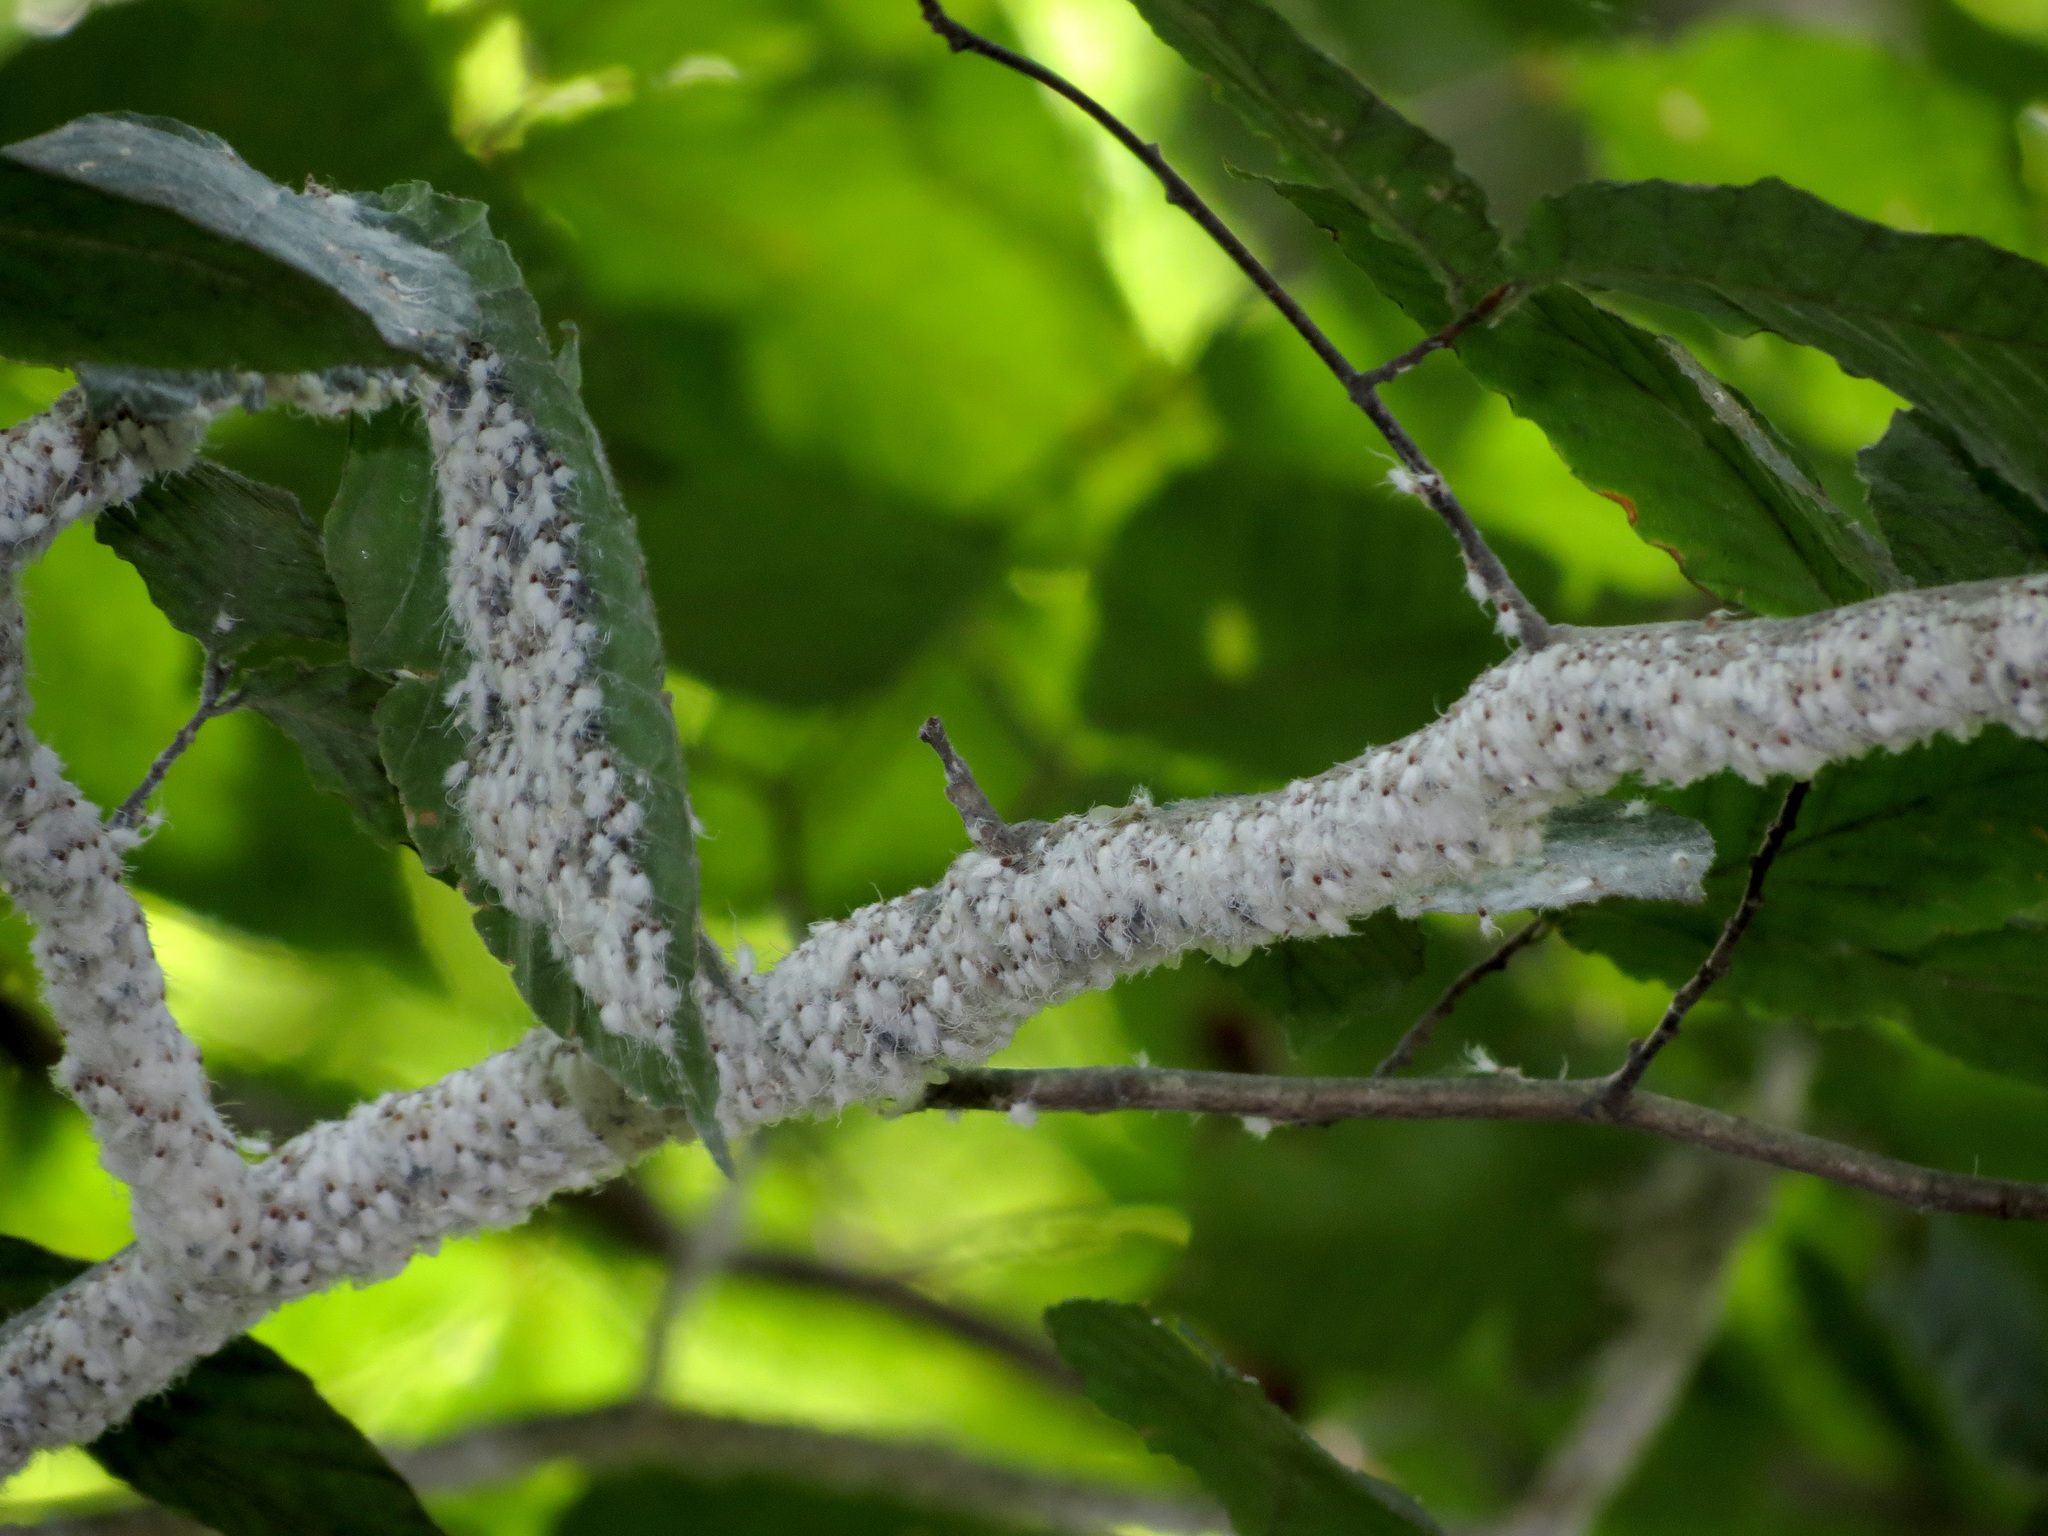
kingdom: Animalia
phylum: Arthropoda
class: Insecta
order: Hemiptera
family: Aphididae
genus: Grylloprociphilus
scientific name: Grylloprociphilus imbricator
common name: Beech blight aphid
